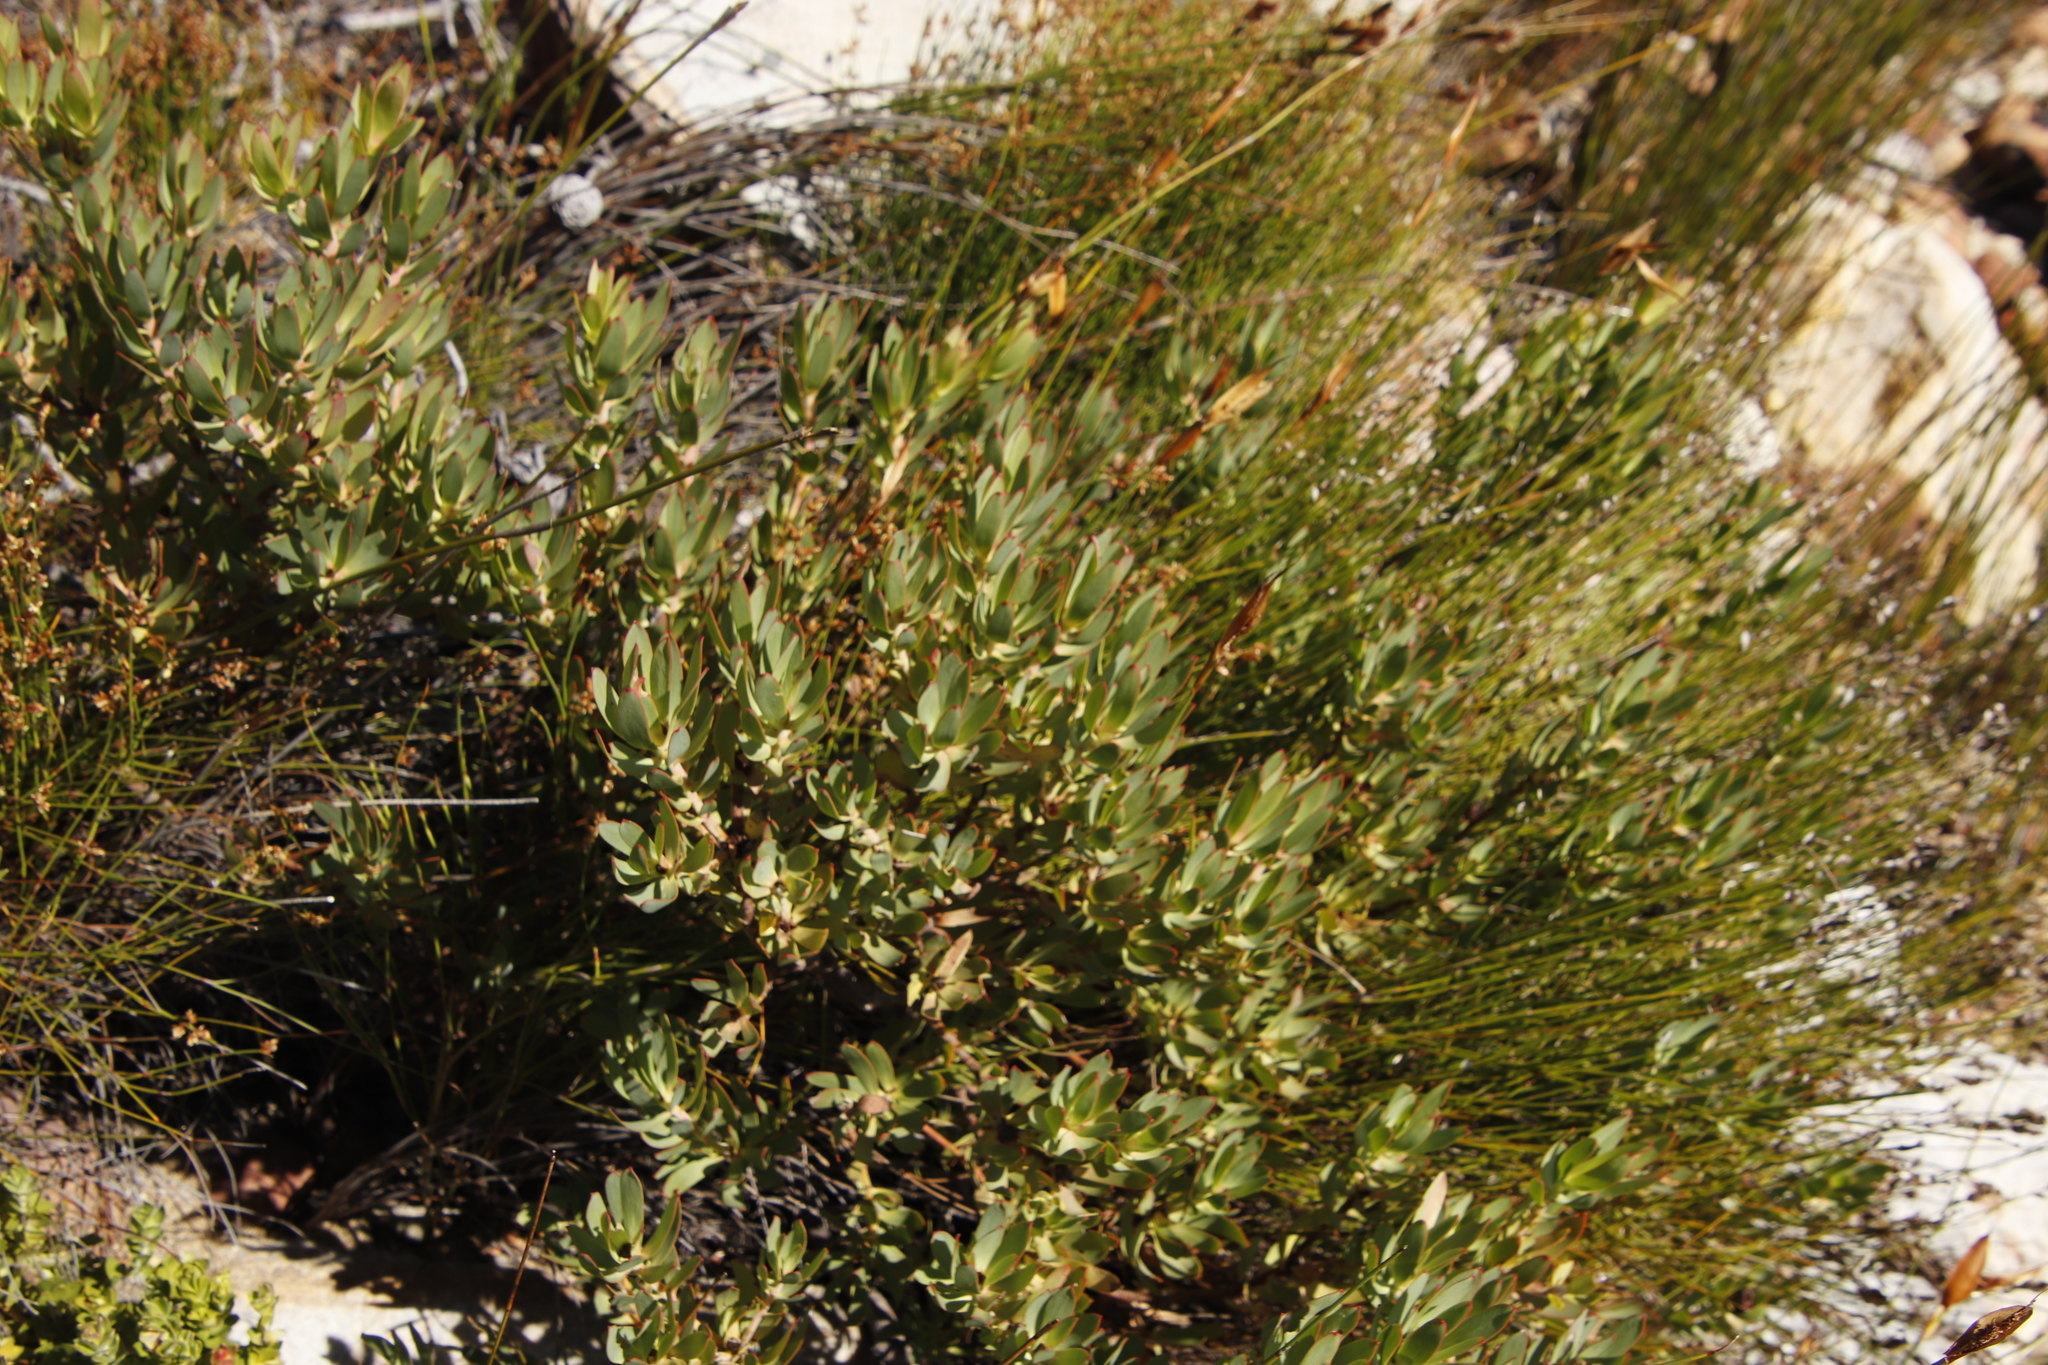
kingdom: Plantae
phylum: Tracheophyta
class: Magnoliopsida
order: Proteales
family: Proteaceae
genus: Leucadendron
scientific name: Leucadendron sessile
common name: Western sunbush
